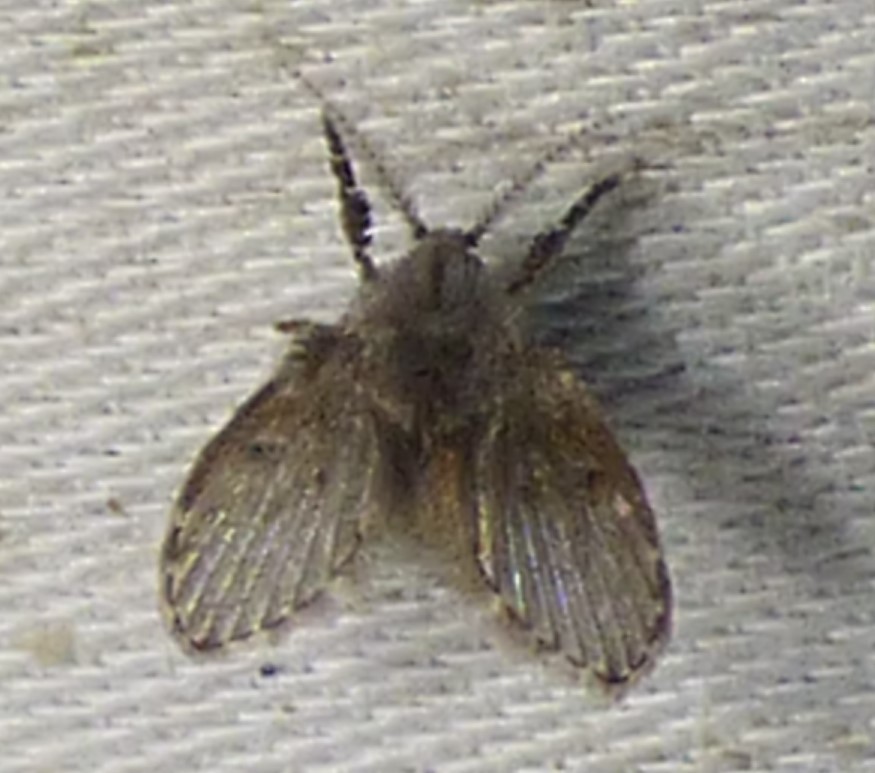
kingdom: Animalia
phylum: Arthropoda
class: Insecta
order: Diptera
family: Psychodidae
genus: Clogmia
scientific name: Clogmia albipunctatus
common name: White-spotted moth fly
